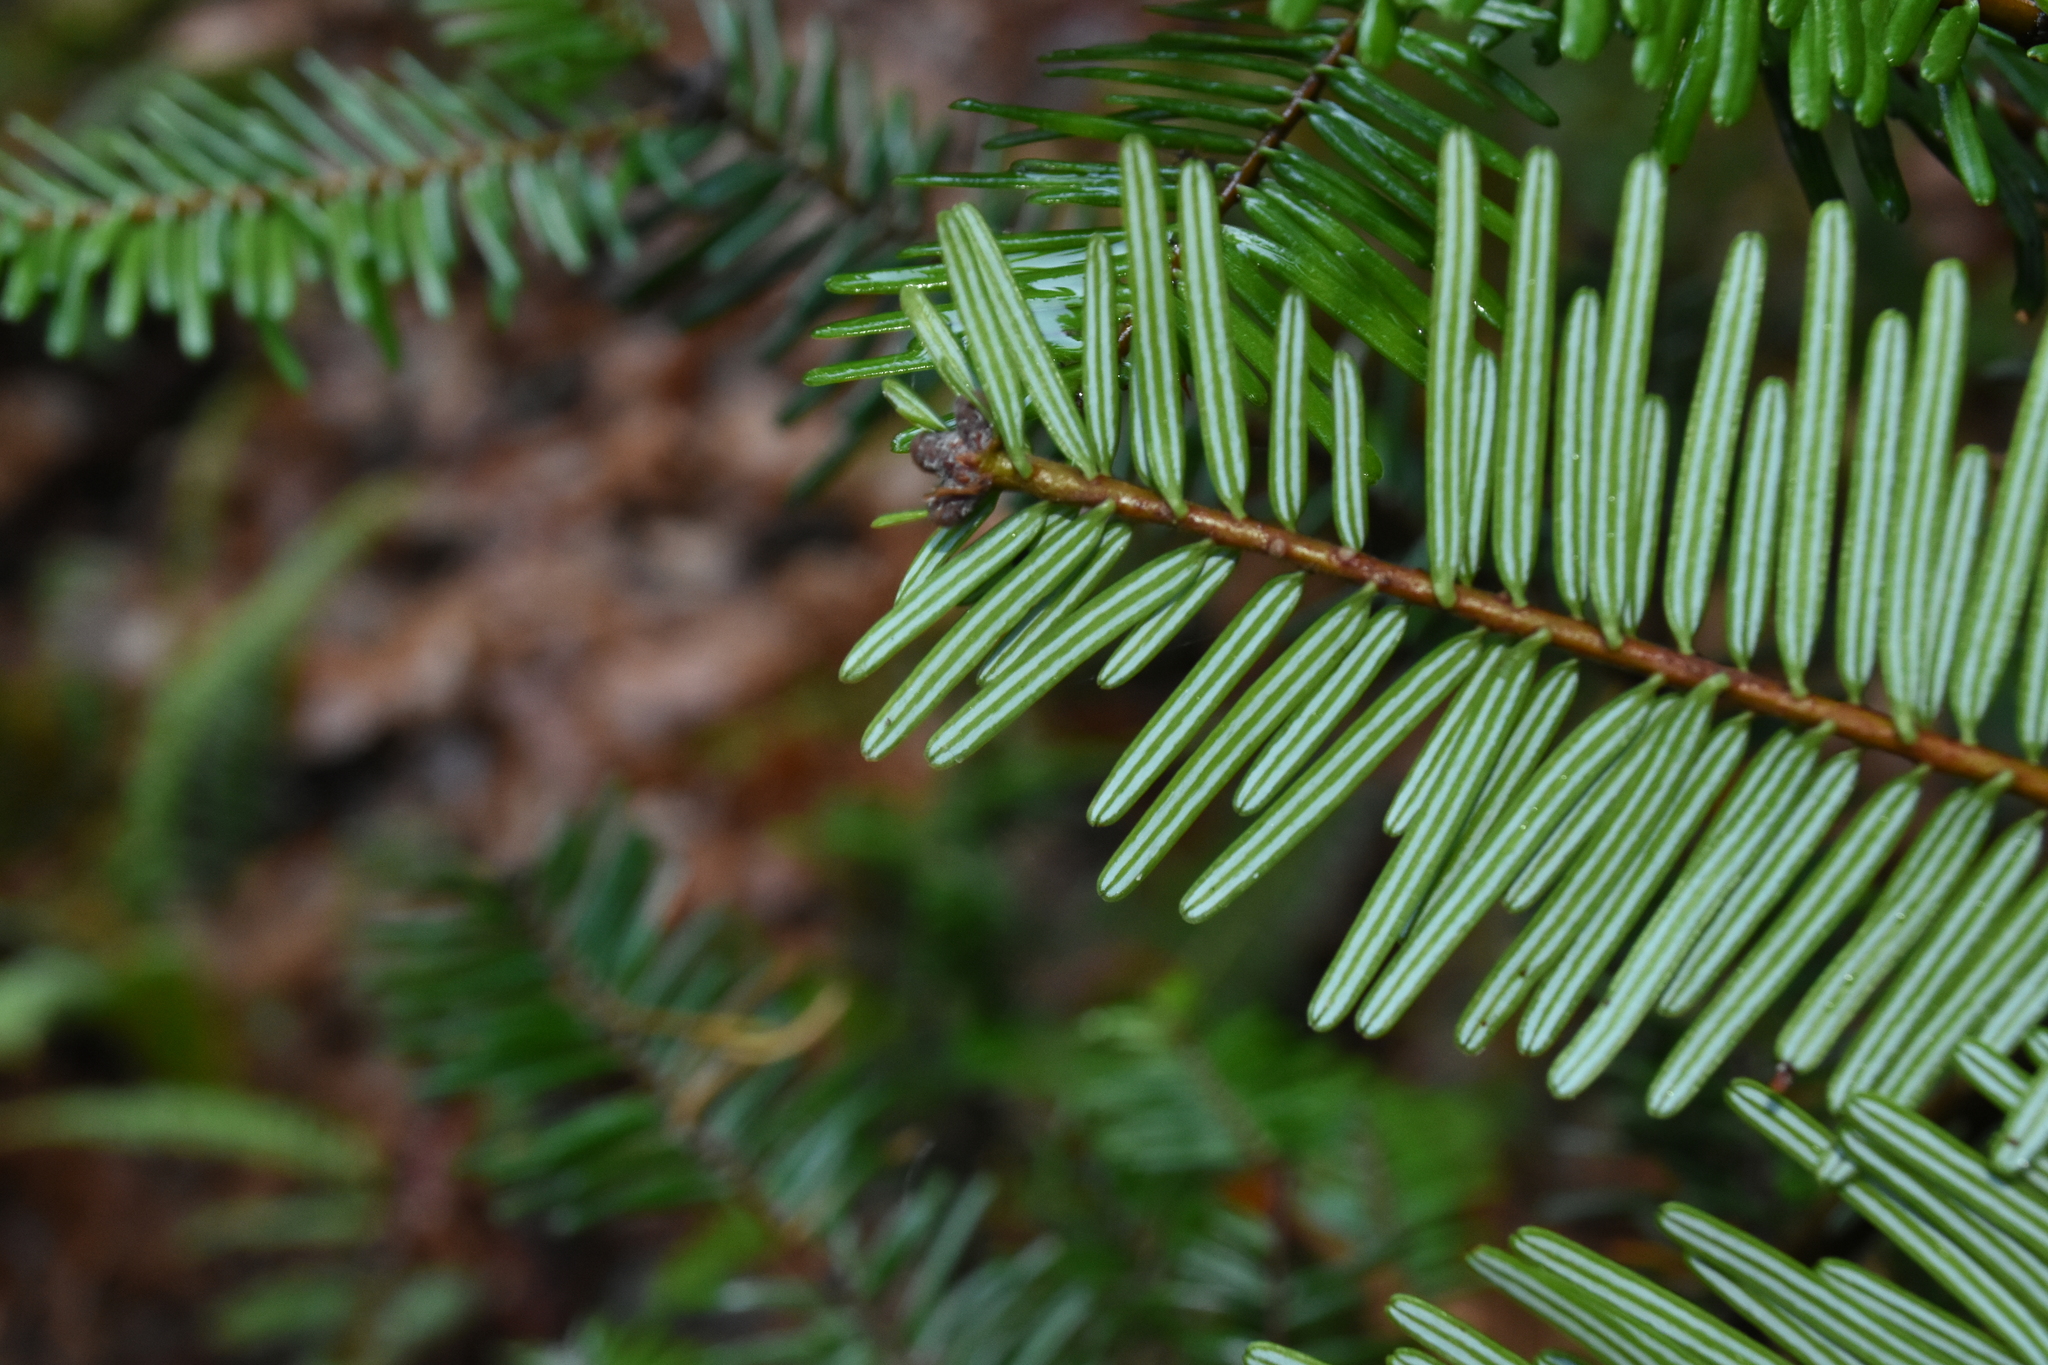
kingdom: Plantae
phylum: Tracheophyta
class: Pinopsida
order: Pinales
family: Pinaceae
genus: Abies
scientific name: Abies grandis
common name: Giant fir
